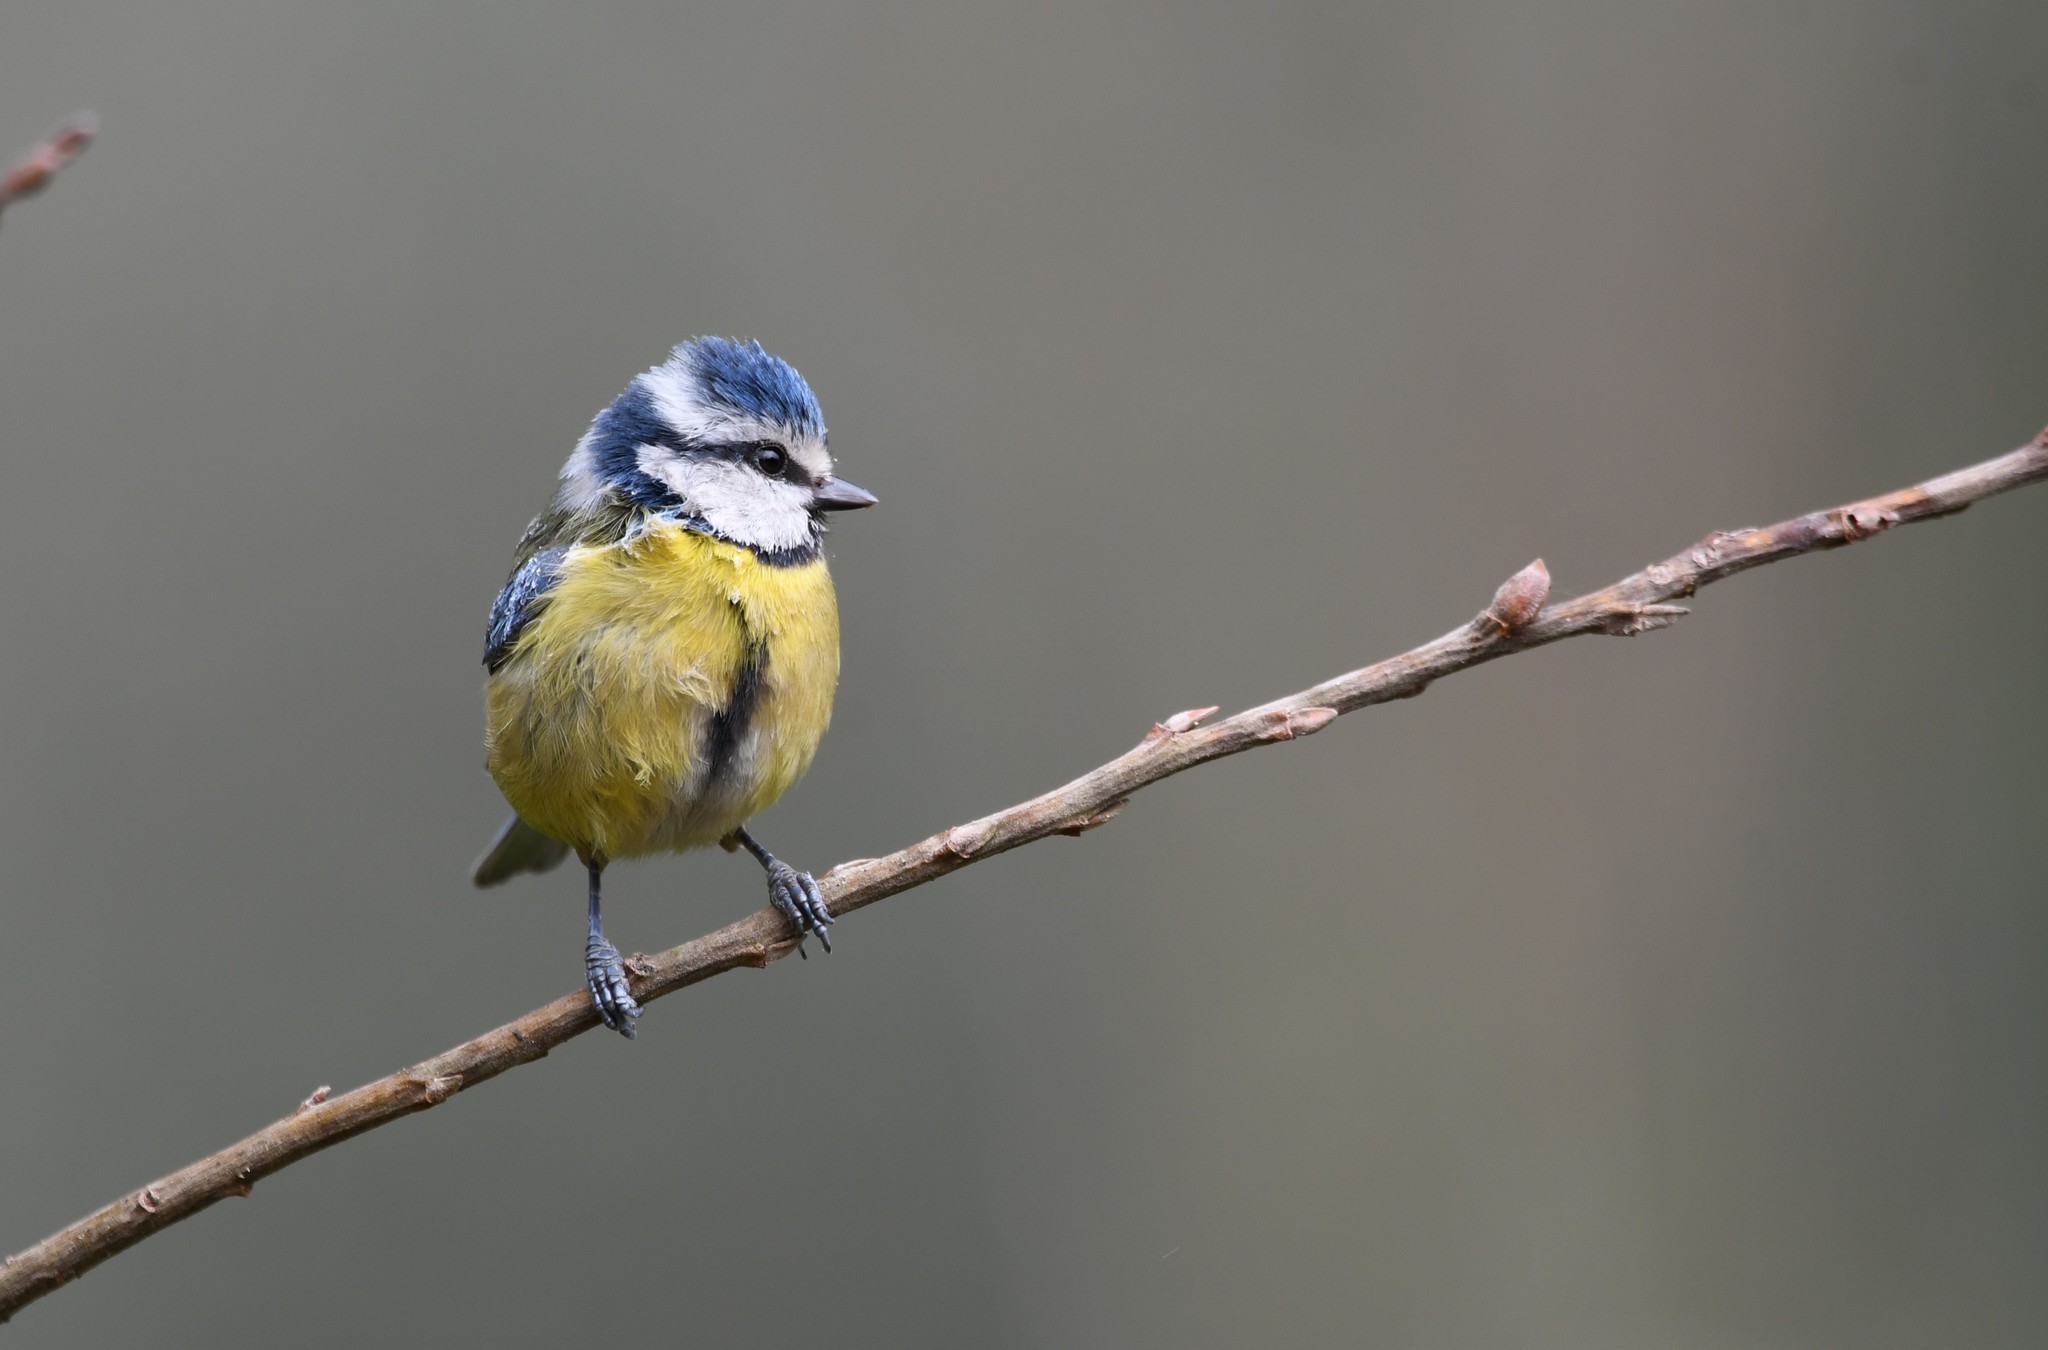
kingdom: Animalia
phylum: Chordata
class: Aves
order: Passeriformes
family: Paridae
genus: Cyanistes
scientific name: Cyanistes caeruleus
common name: Eurasian blue tit
